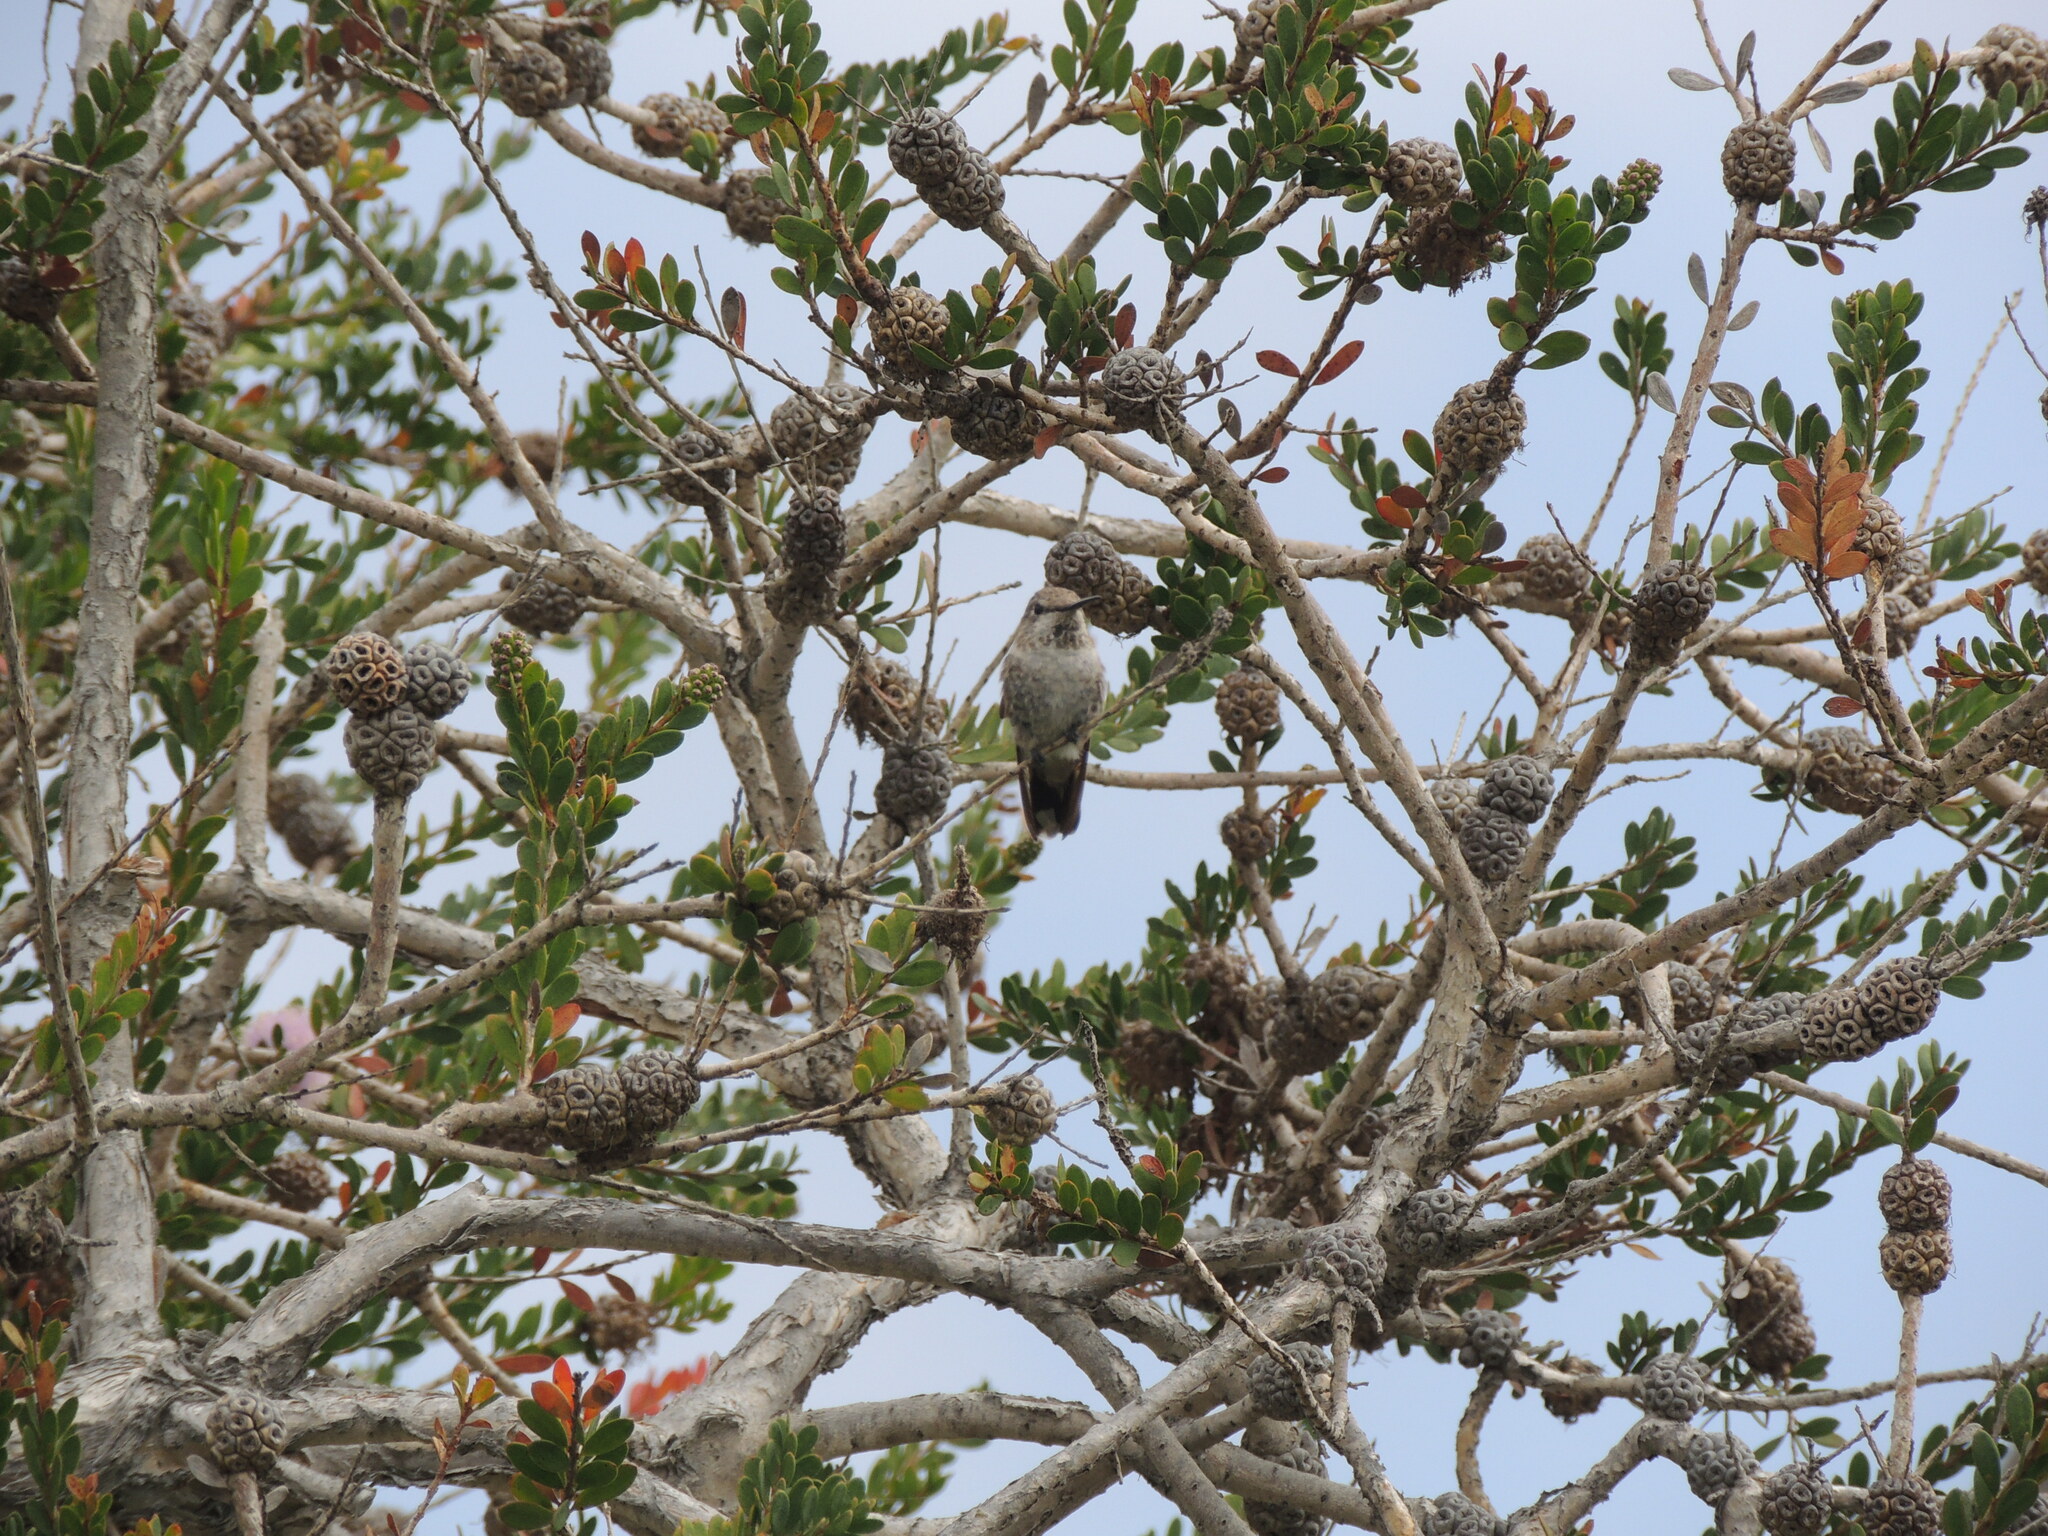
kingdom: Animalia
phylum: Chordata
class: Aves
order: Apodiformes
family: Trochilidae
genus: Calypte
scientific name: Calypte anna
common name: Anna's hummingbird
